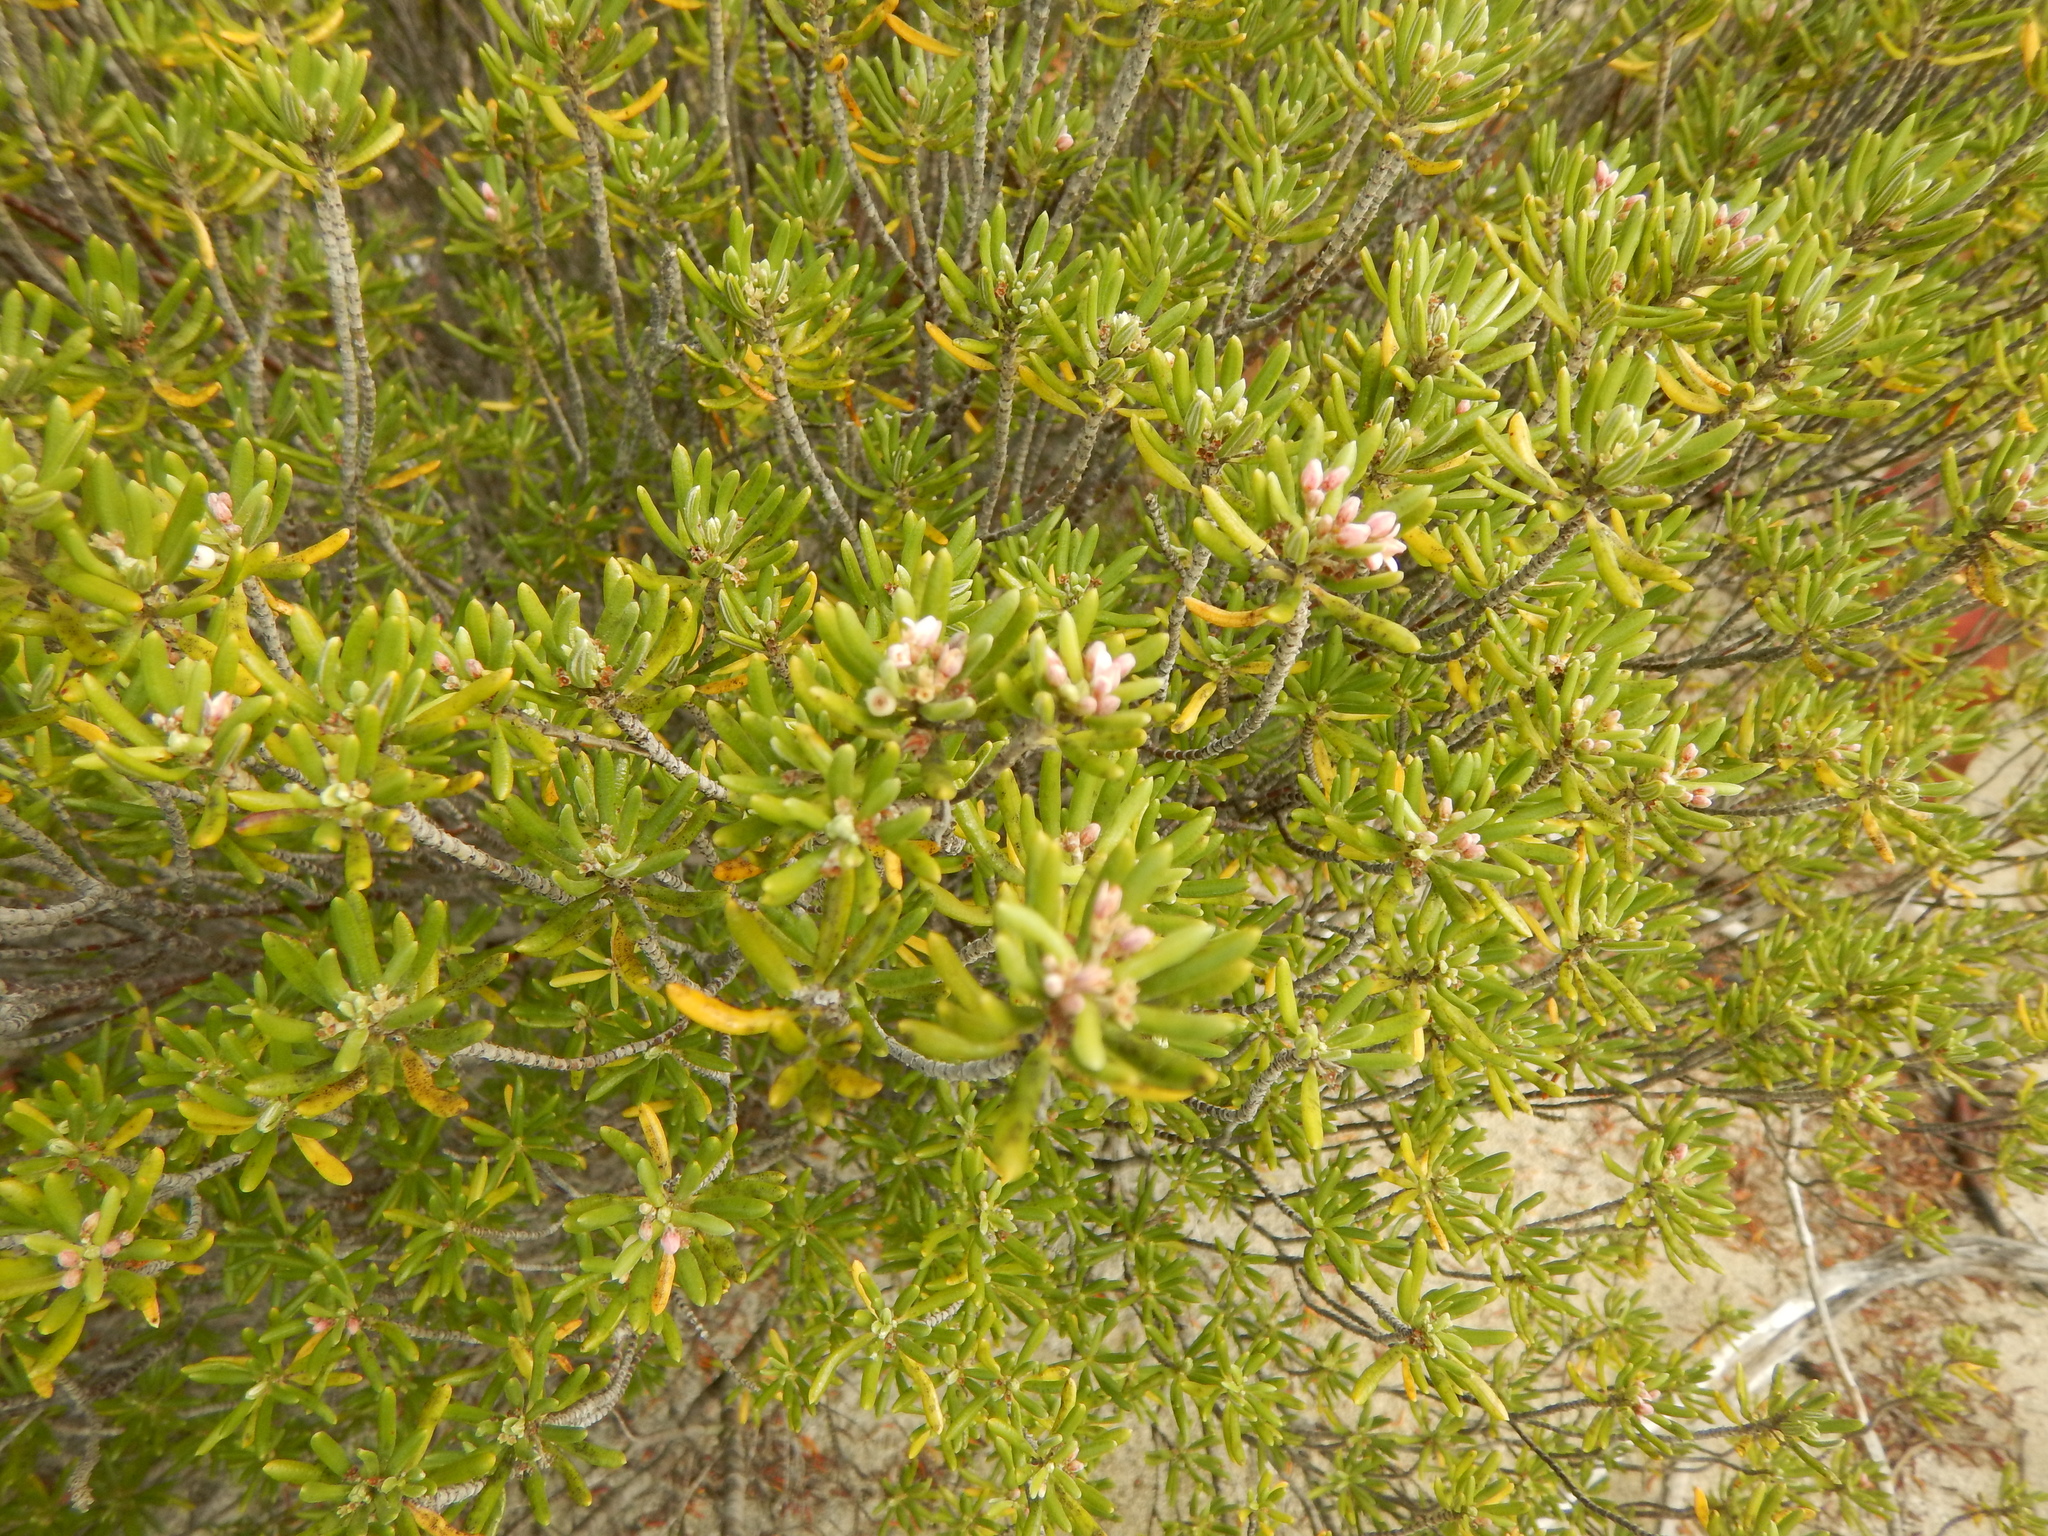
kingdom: Plantae
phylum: Tracheophyta
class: Magnoliopsida
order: Gentianales
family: Rubiaceae
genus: Strumpfia
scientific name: Strumpfia maritima
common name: Pride-of-big pine
